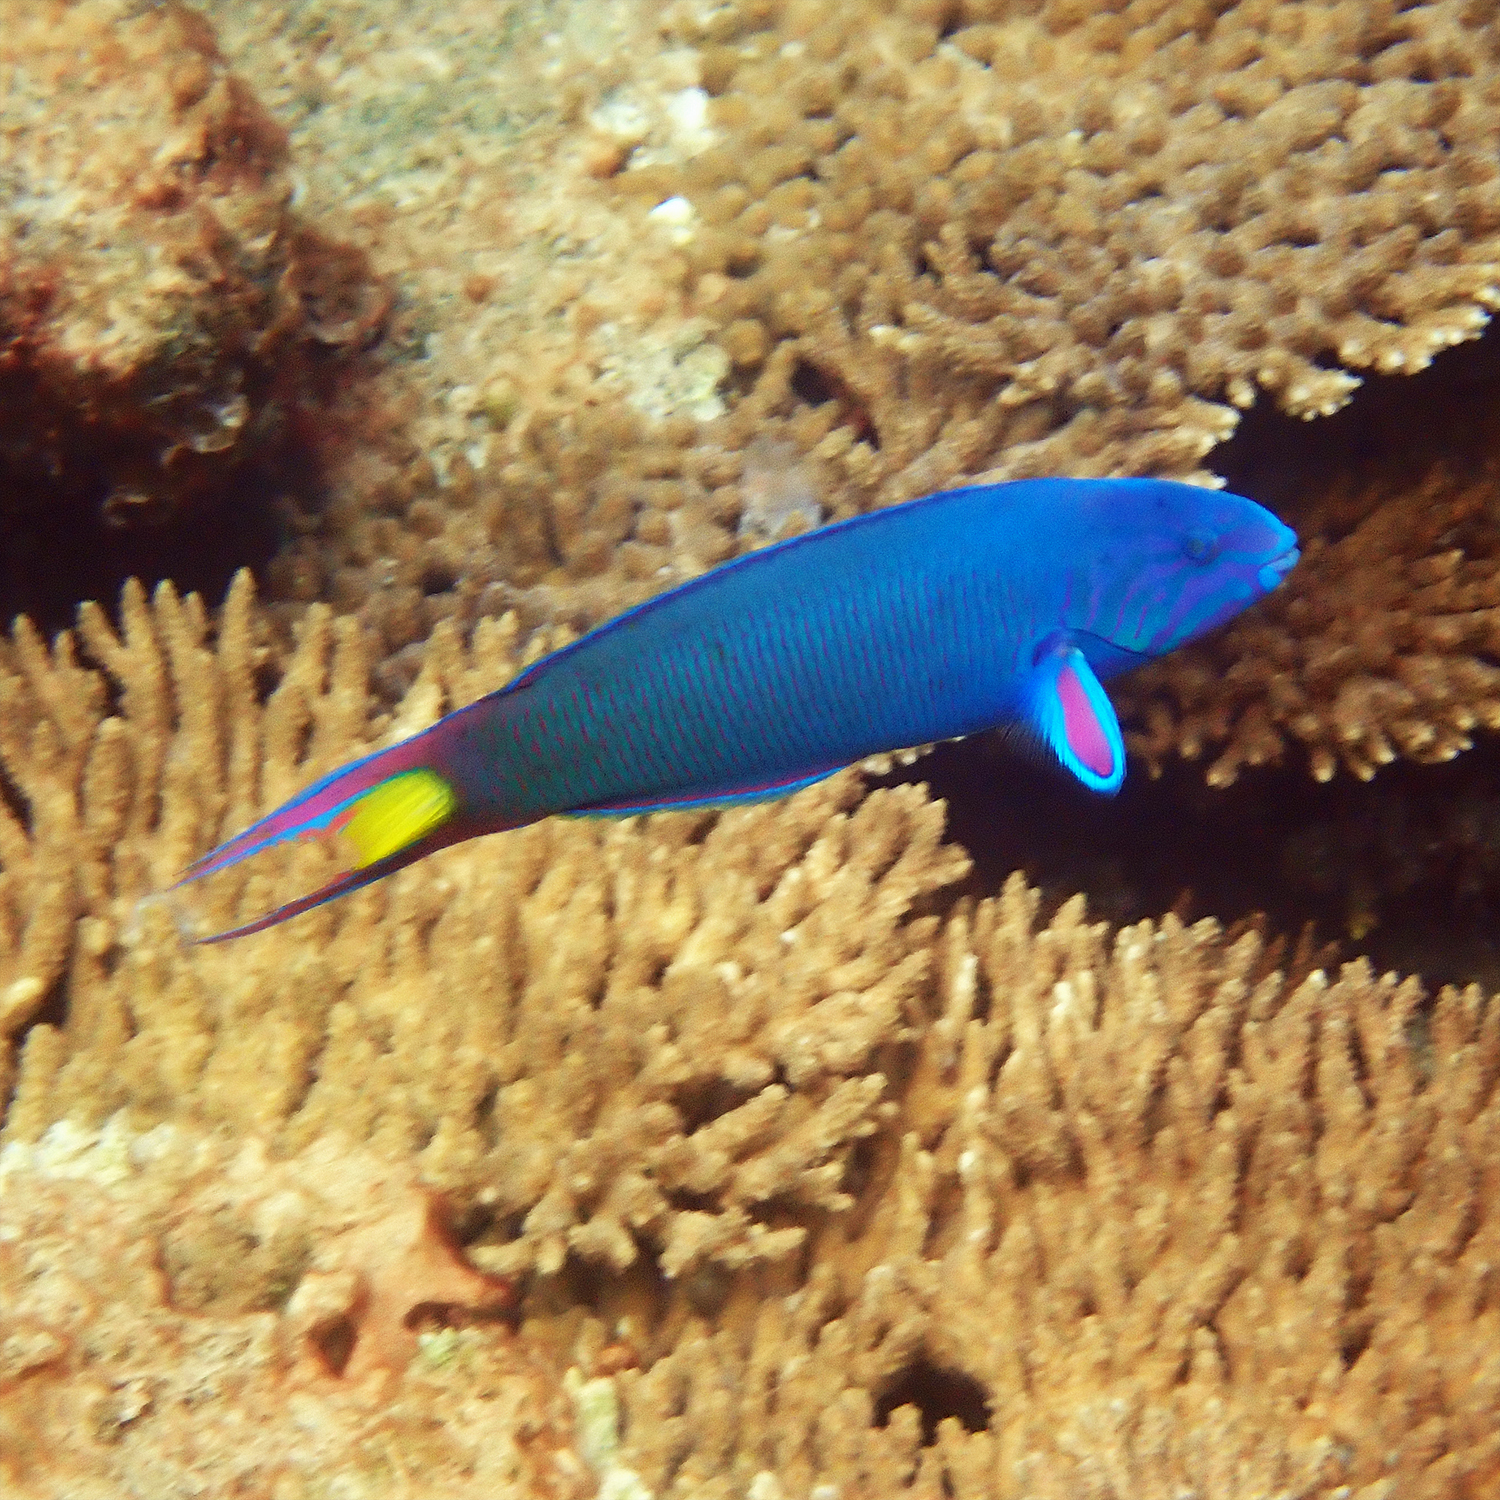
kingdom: Animalia
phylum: Chordata
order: Perciformes
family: Labridae
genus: Thalassoma
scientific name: Thalassoma lunare
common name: Blue wrasse
